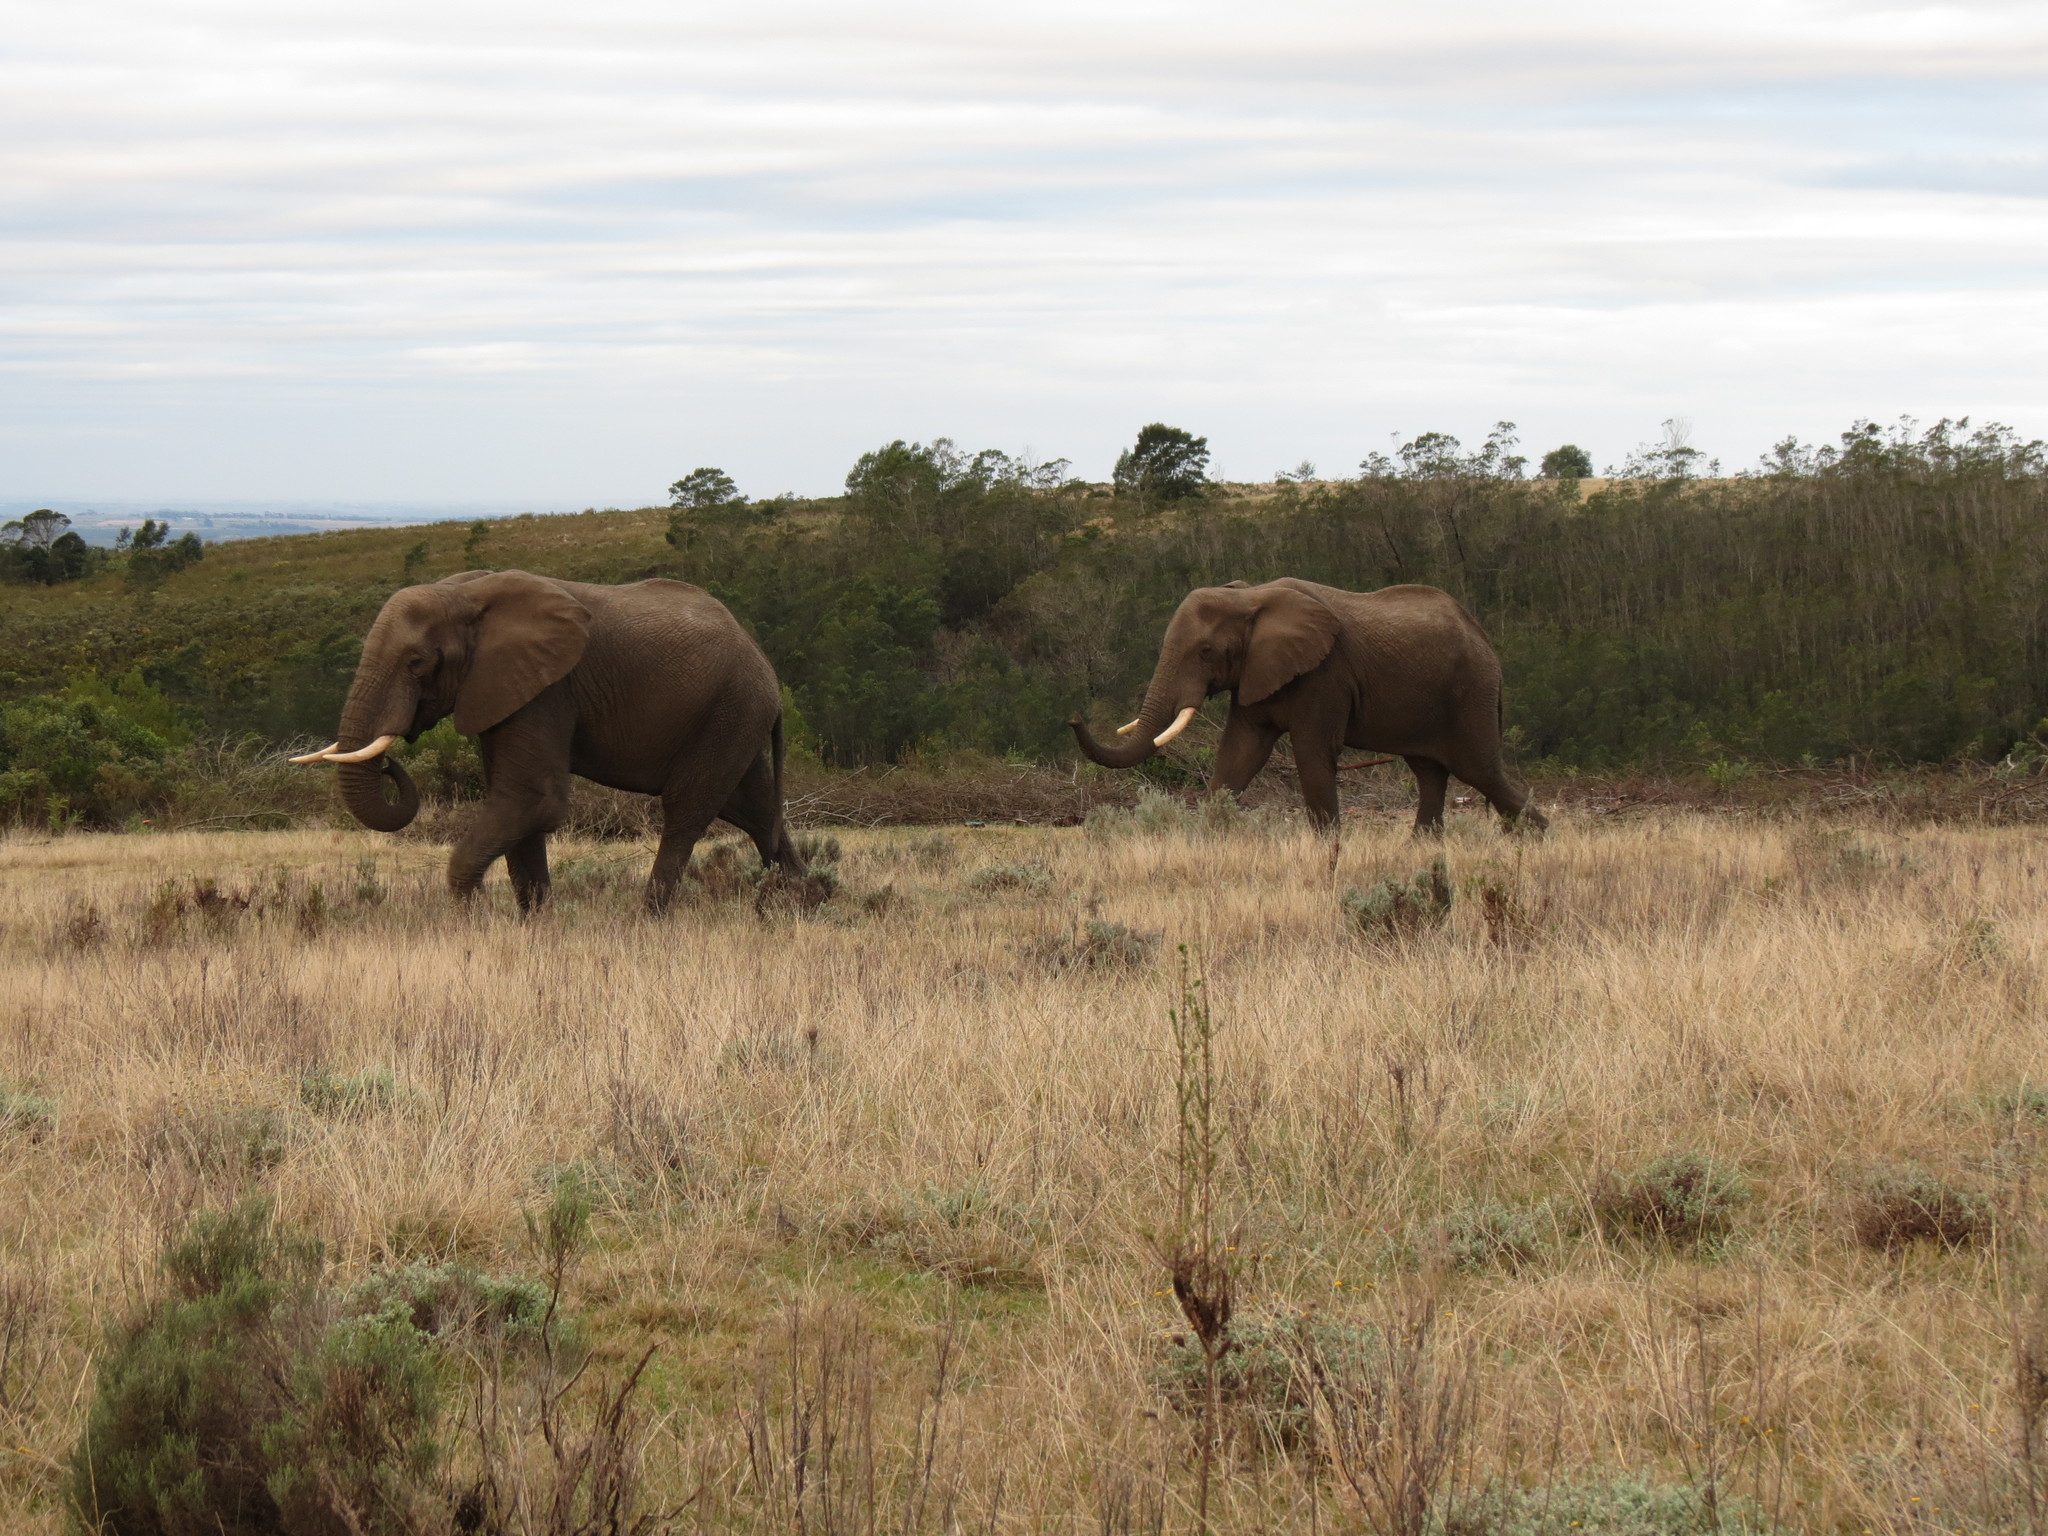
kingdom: Animalia
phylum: Chordata
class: Mammalia
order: Proboscidea
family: Elephantidae
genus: Loxodonta
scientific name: Loxodonta africana
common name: African elephant
